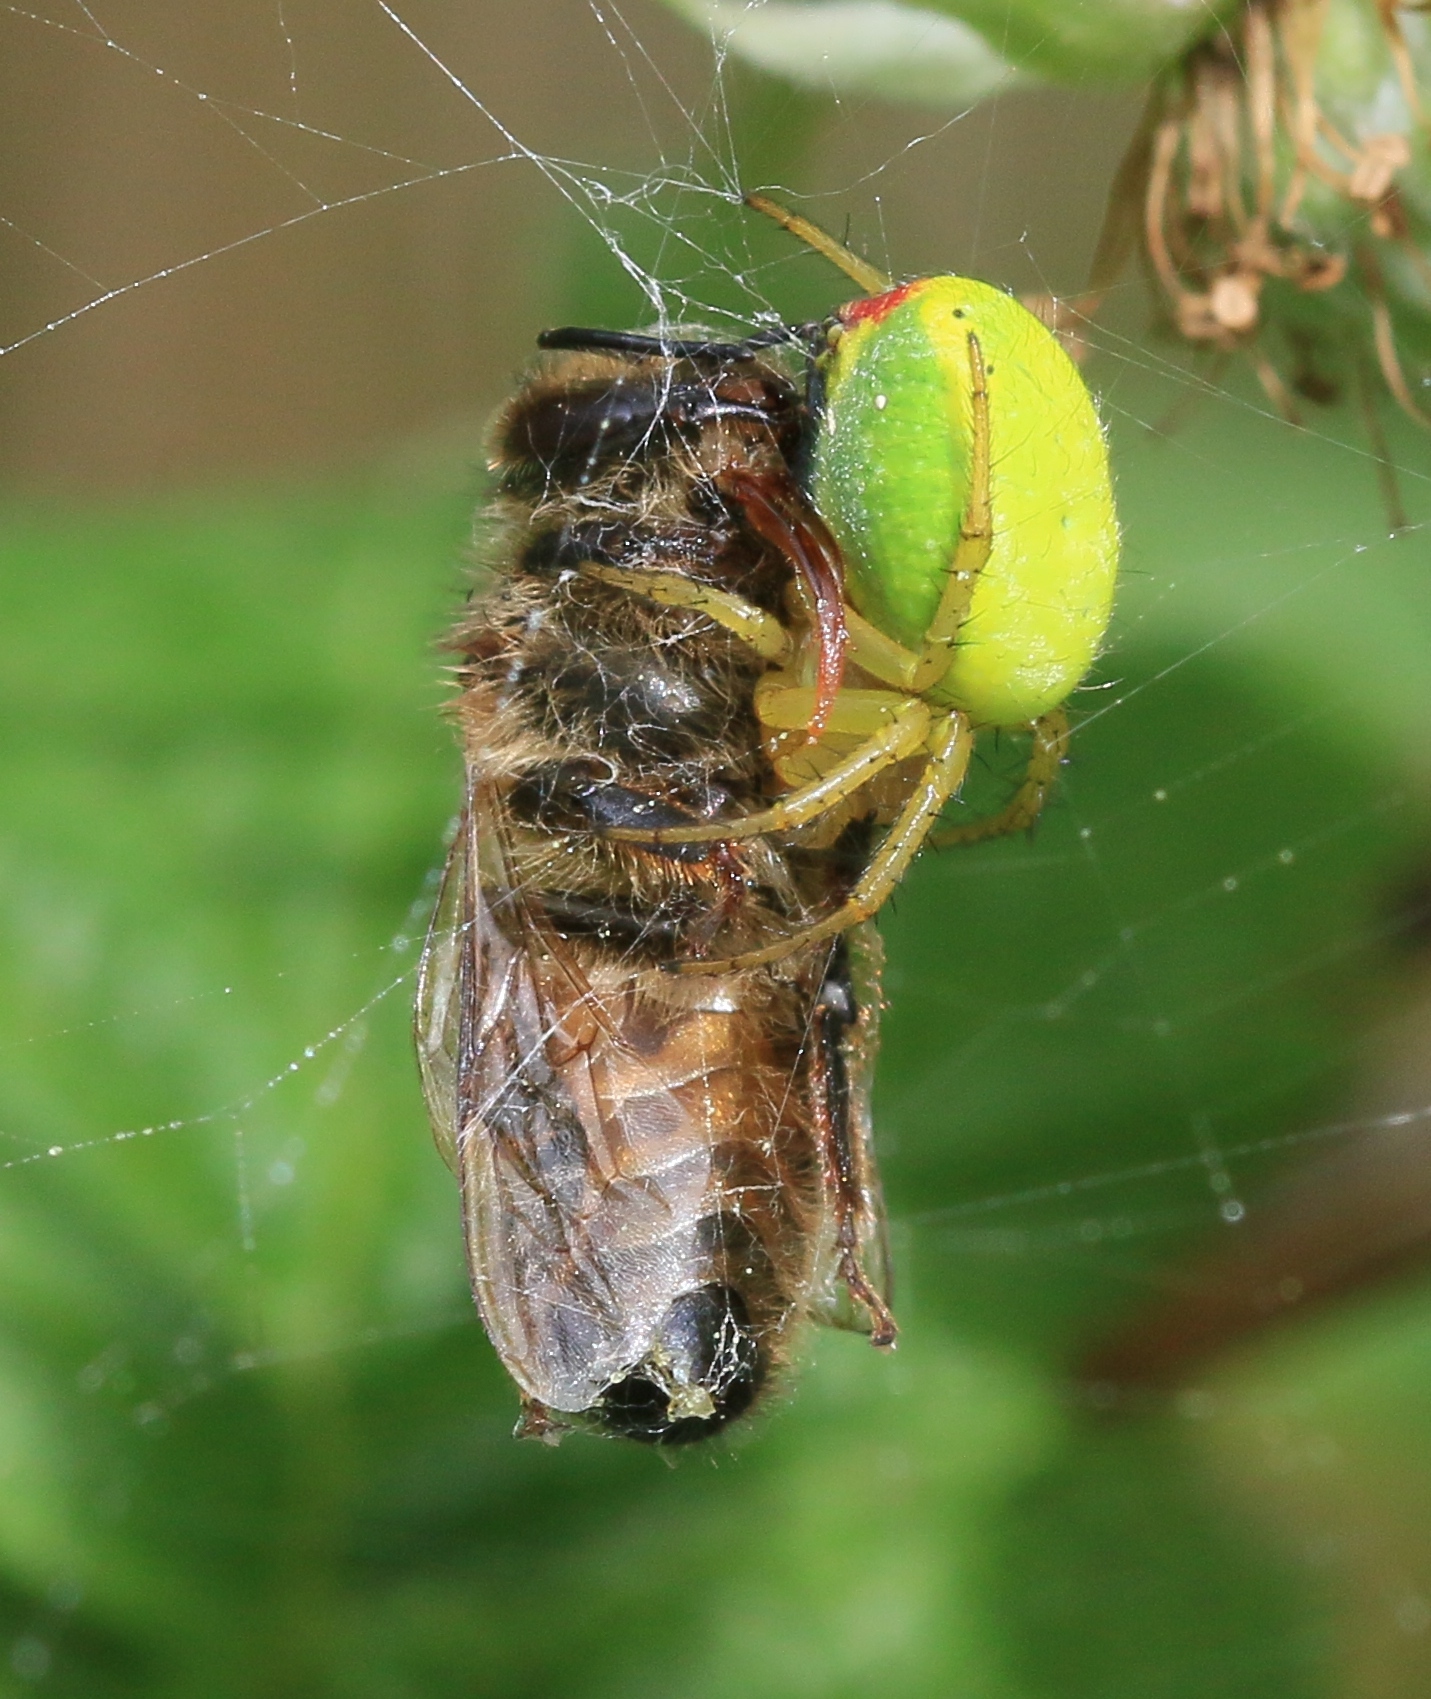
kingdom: Animalia
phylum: Arthropoda
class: Arachnida
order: Araneae
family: Araneidae
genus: Araniella
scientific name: Araniella
